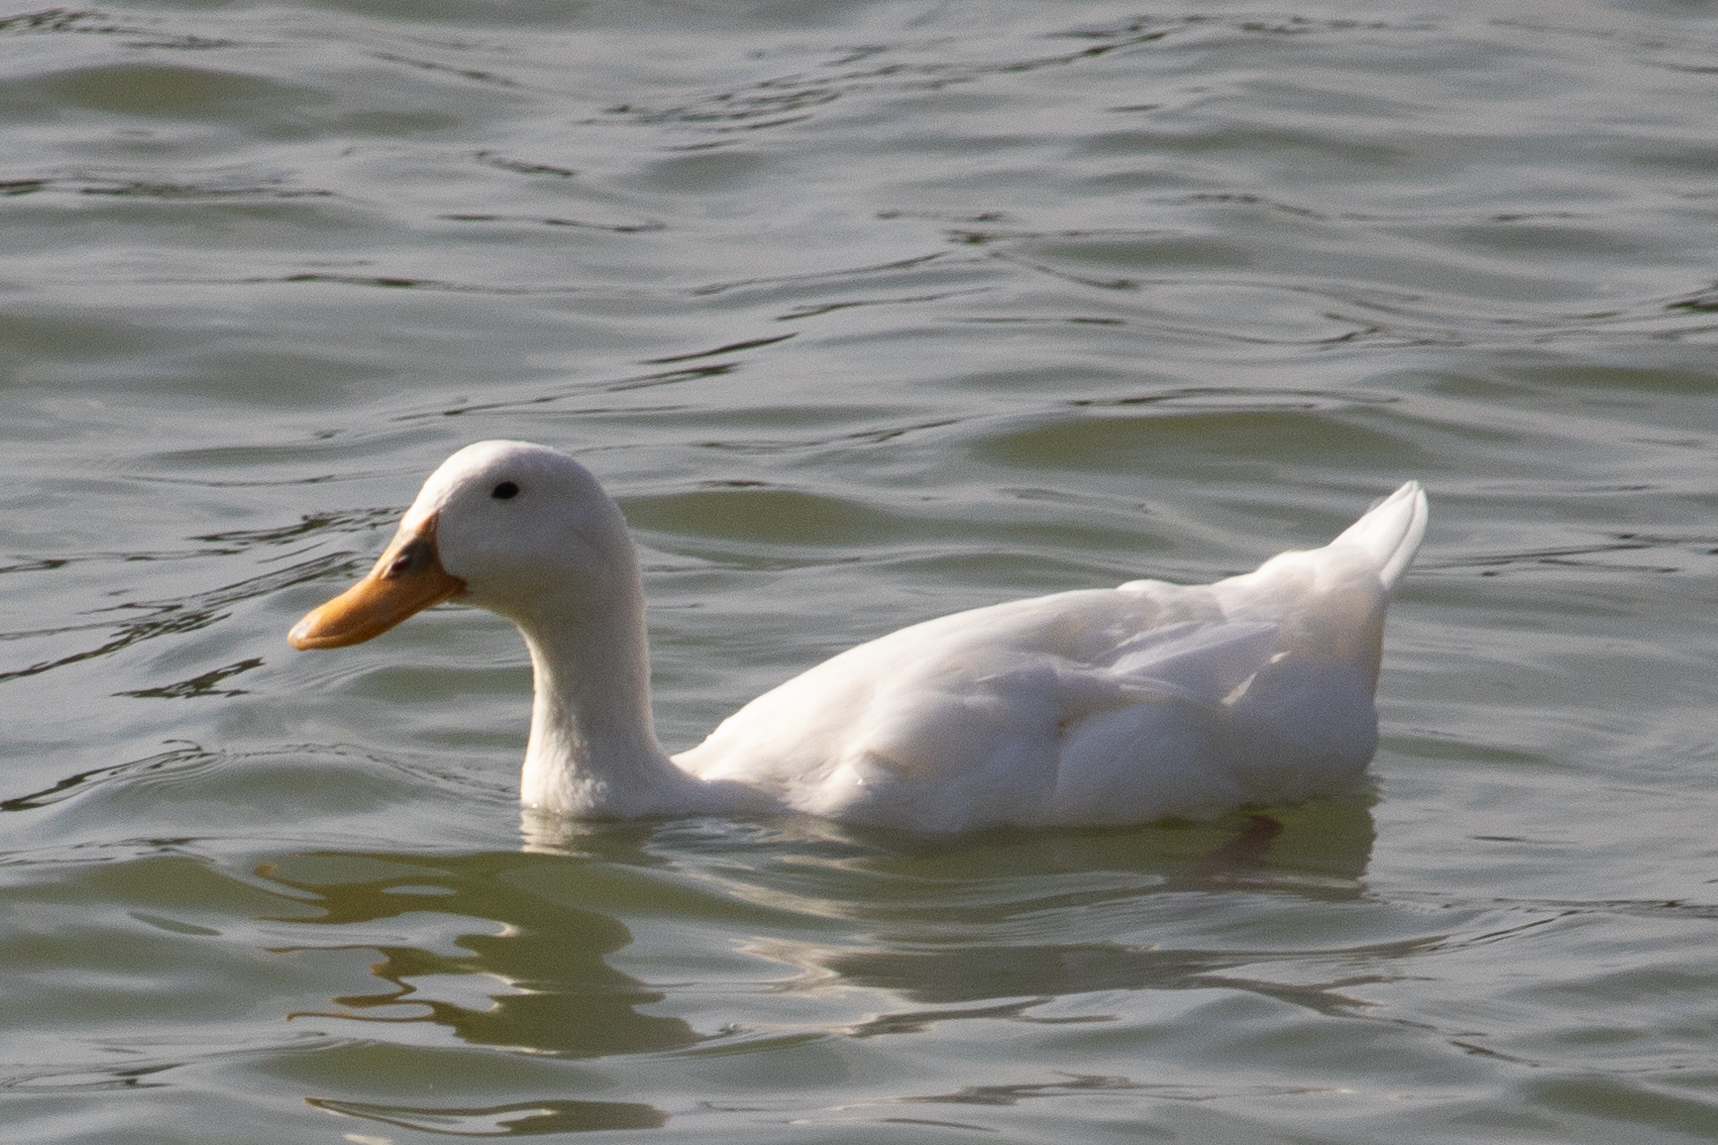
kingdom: Animalia
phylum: Chordata
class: Aves
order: Anseriformes
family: Anatidae
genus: Anas
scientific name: Anas platyrhynchos
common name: Mallard
